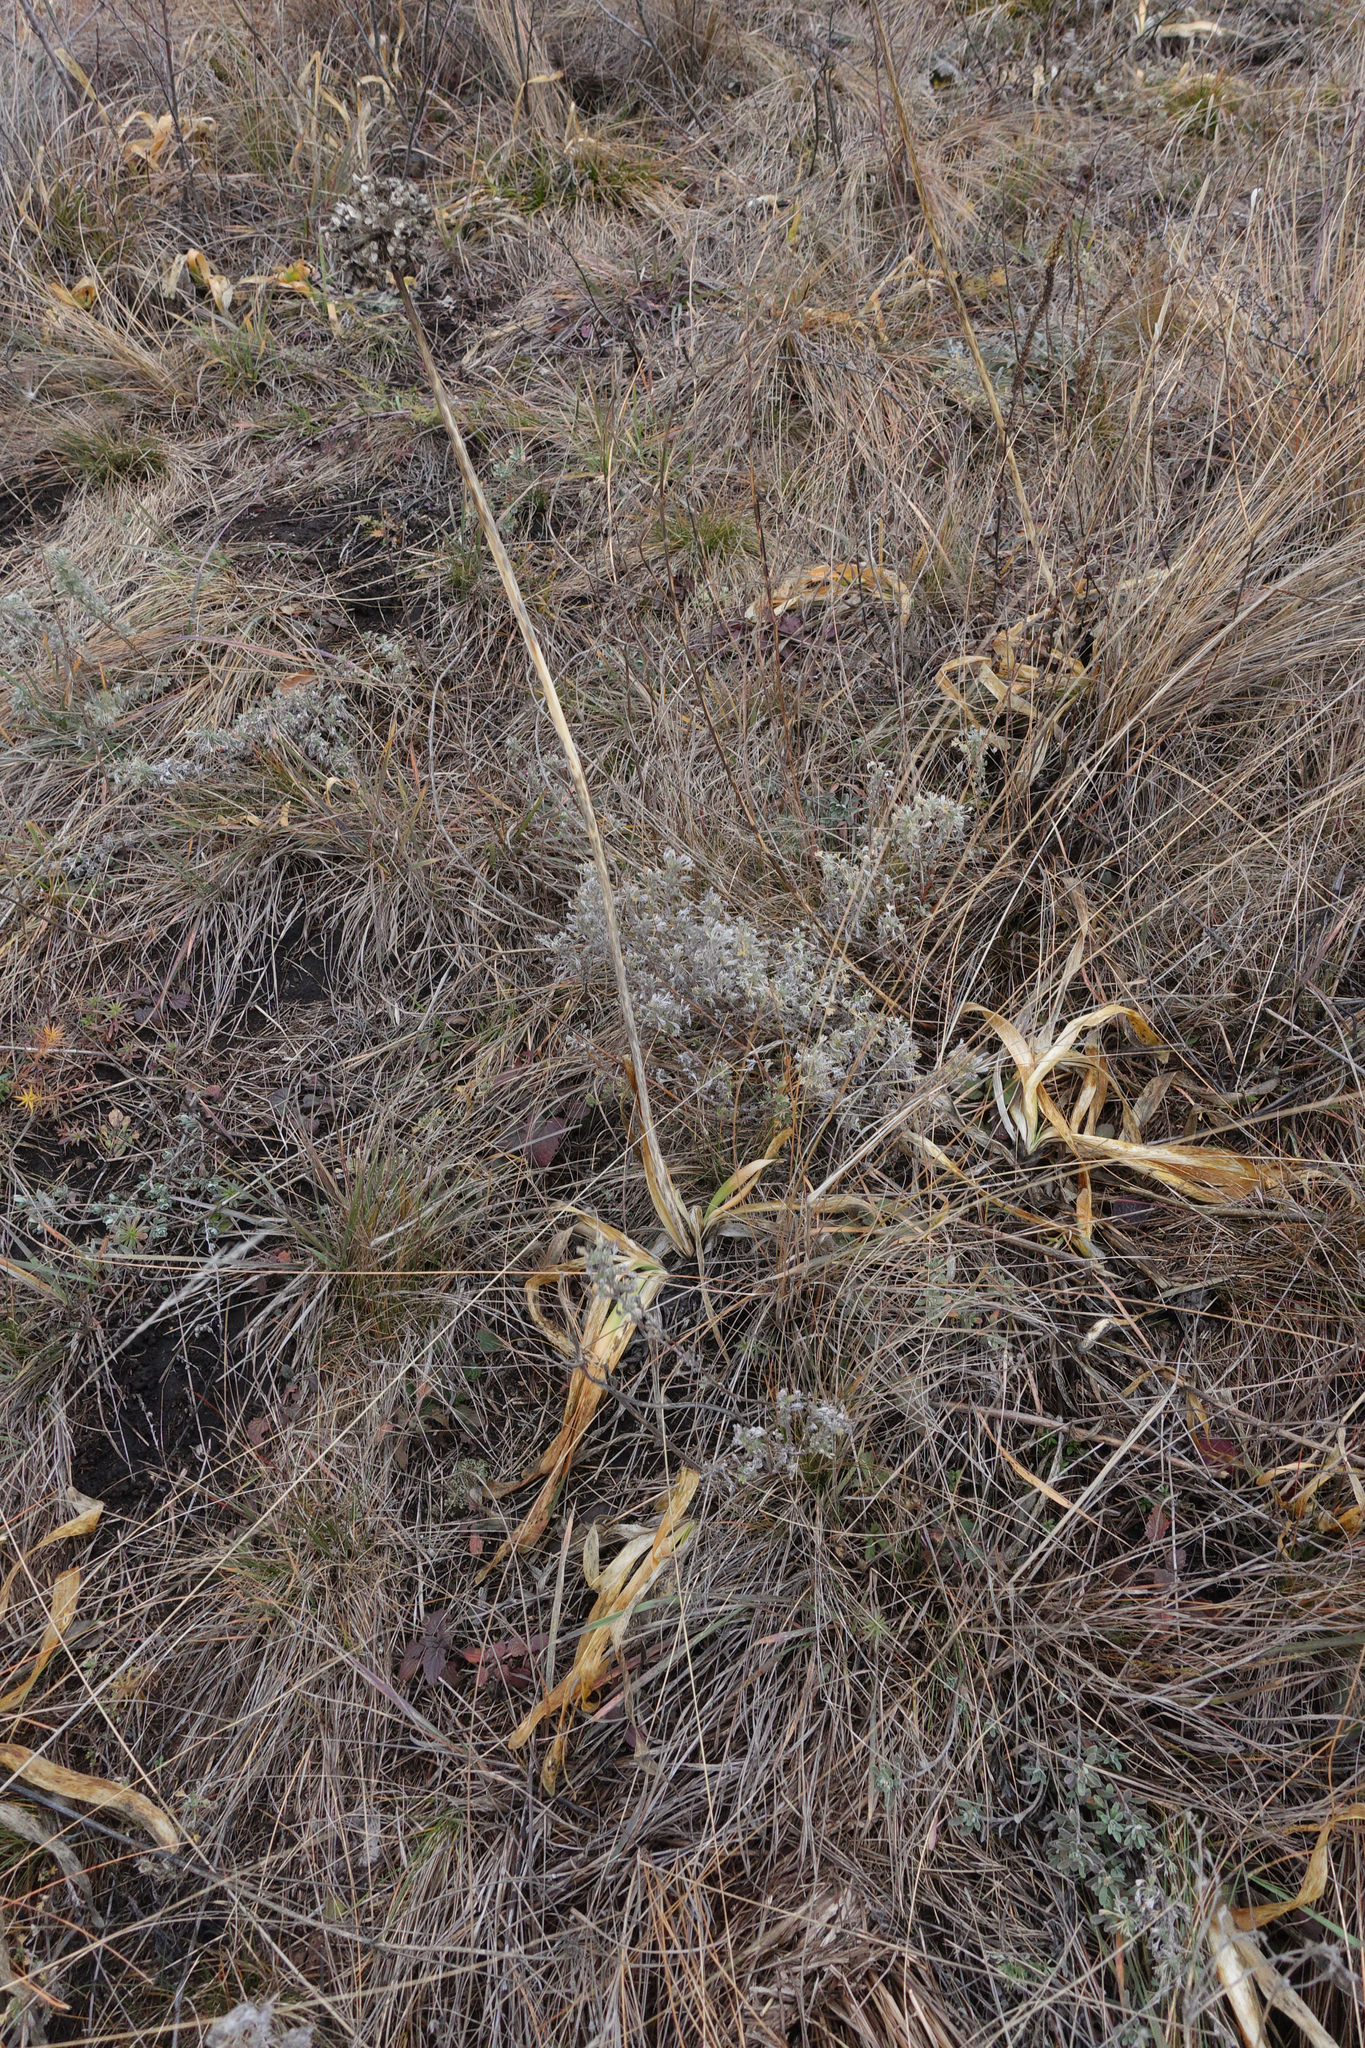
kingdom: Plantae
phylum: Tracheophyta
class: Liliopsida
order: Asparagales
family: Amaryllidaceae
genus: Allium
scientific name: Allium nutans
